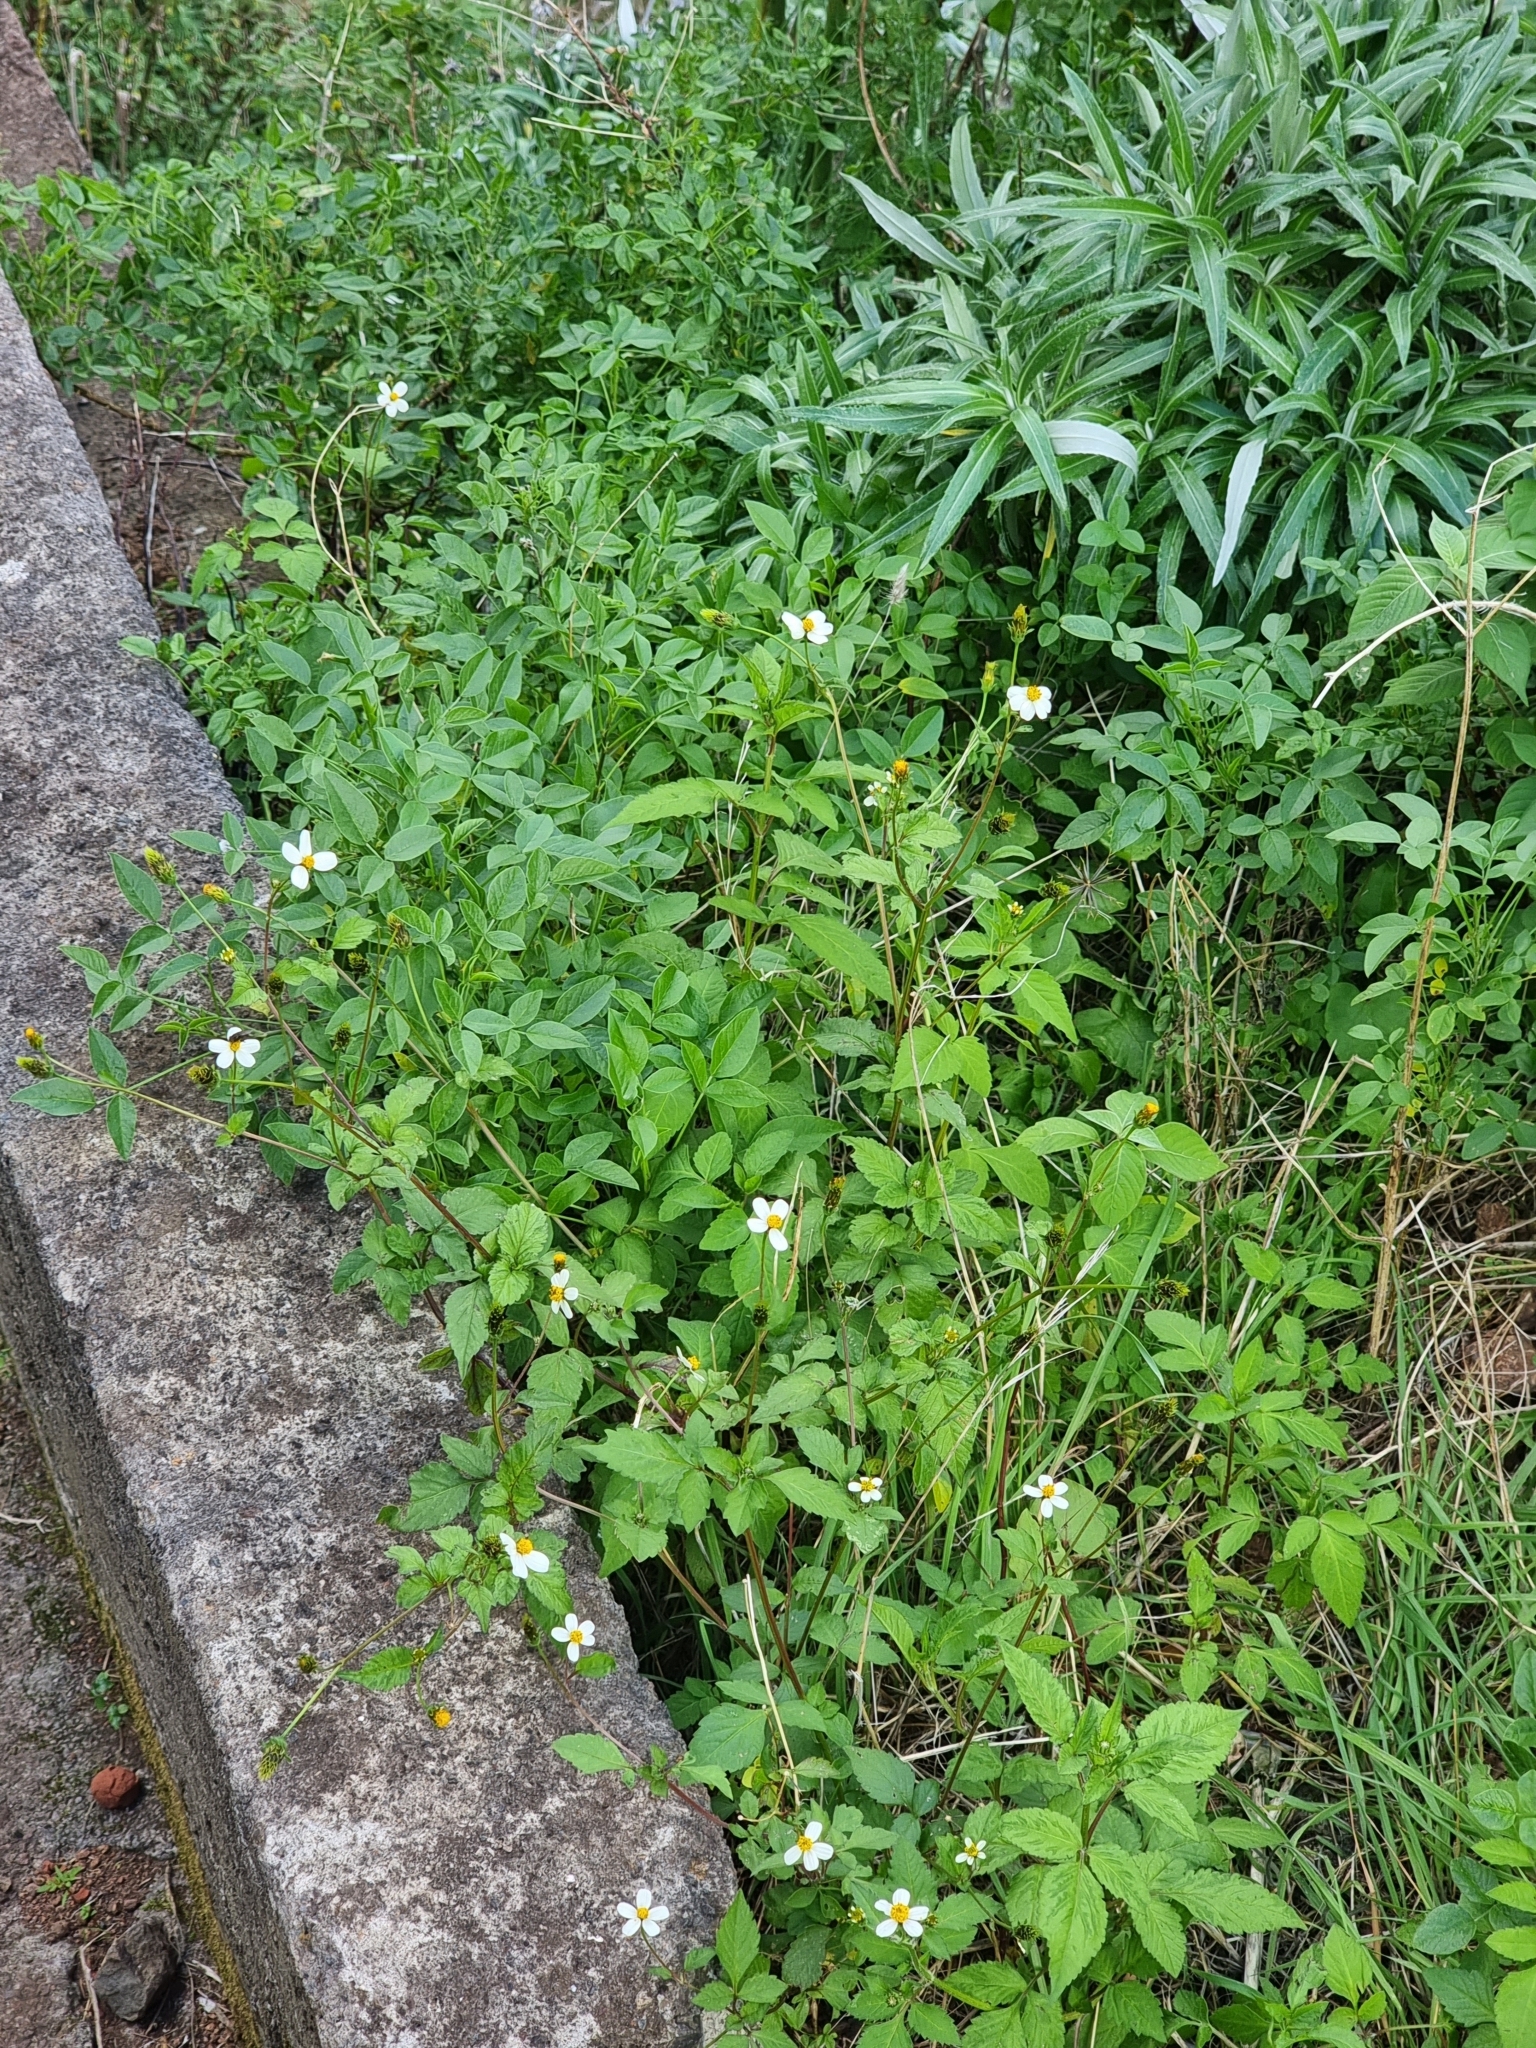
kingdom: Plantae
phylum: Tracheophyta
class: Magnoliopsida
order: Asterales
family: Asteraceae
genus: Bidens
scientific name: Bidens pilosa
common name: Black-jack
